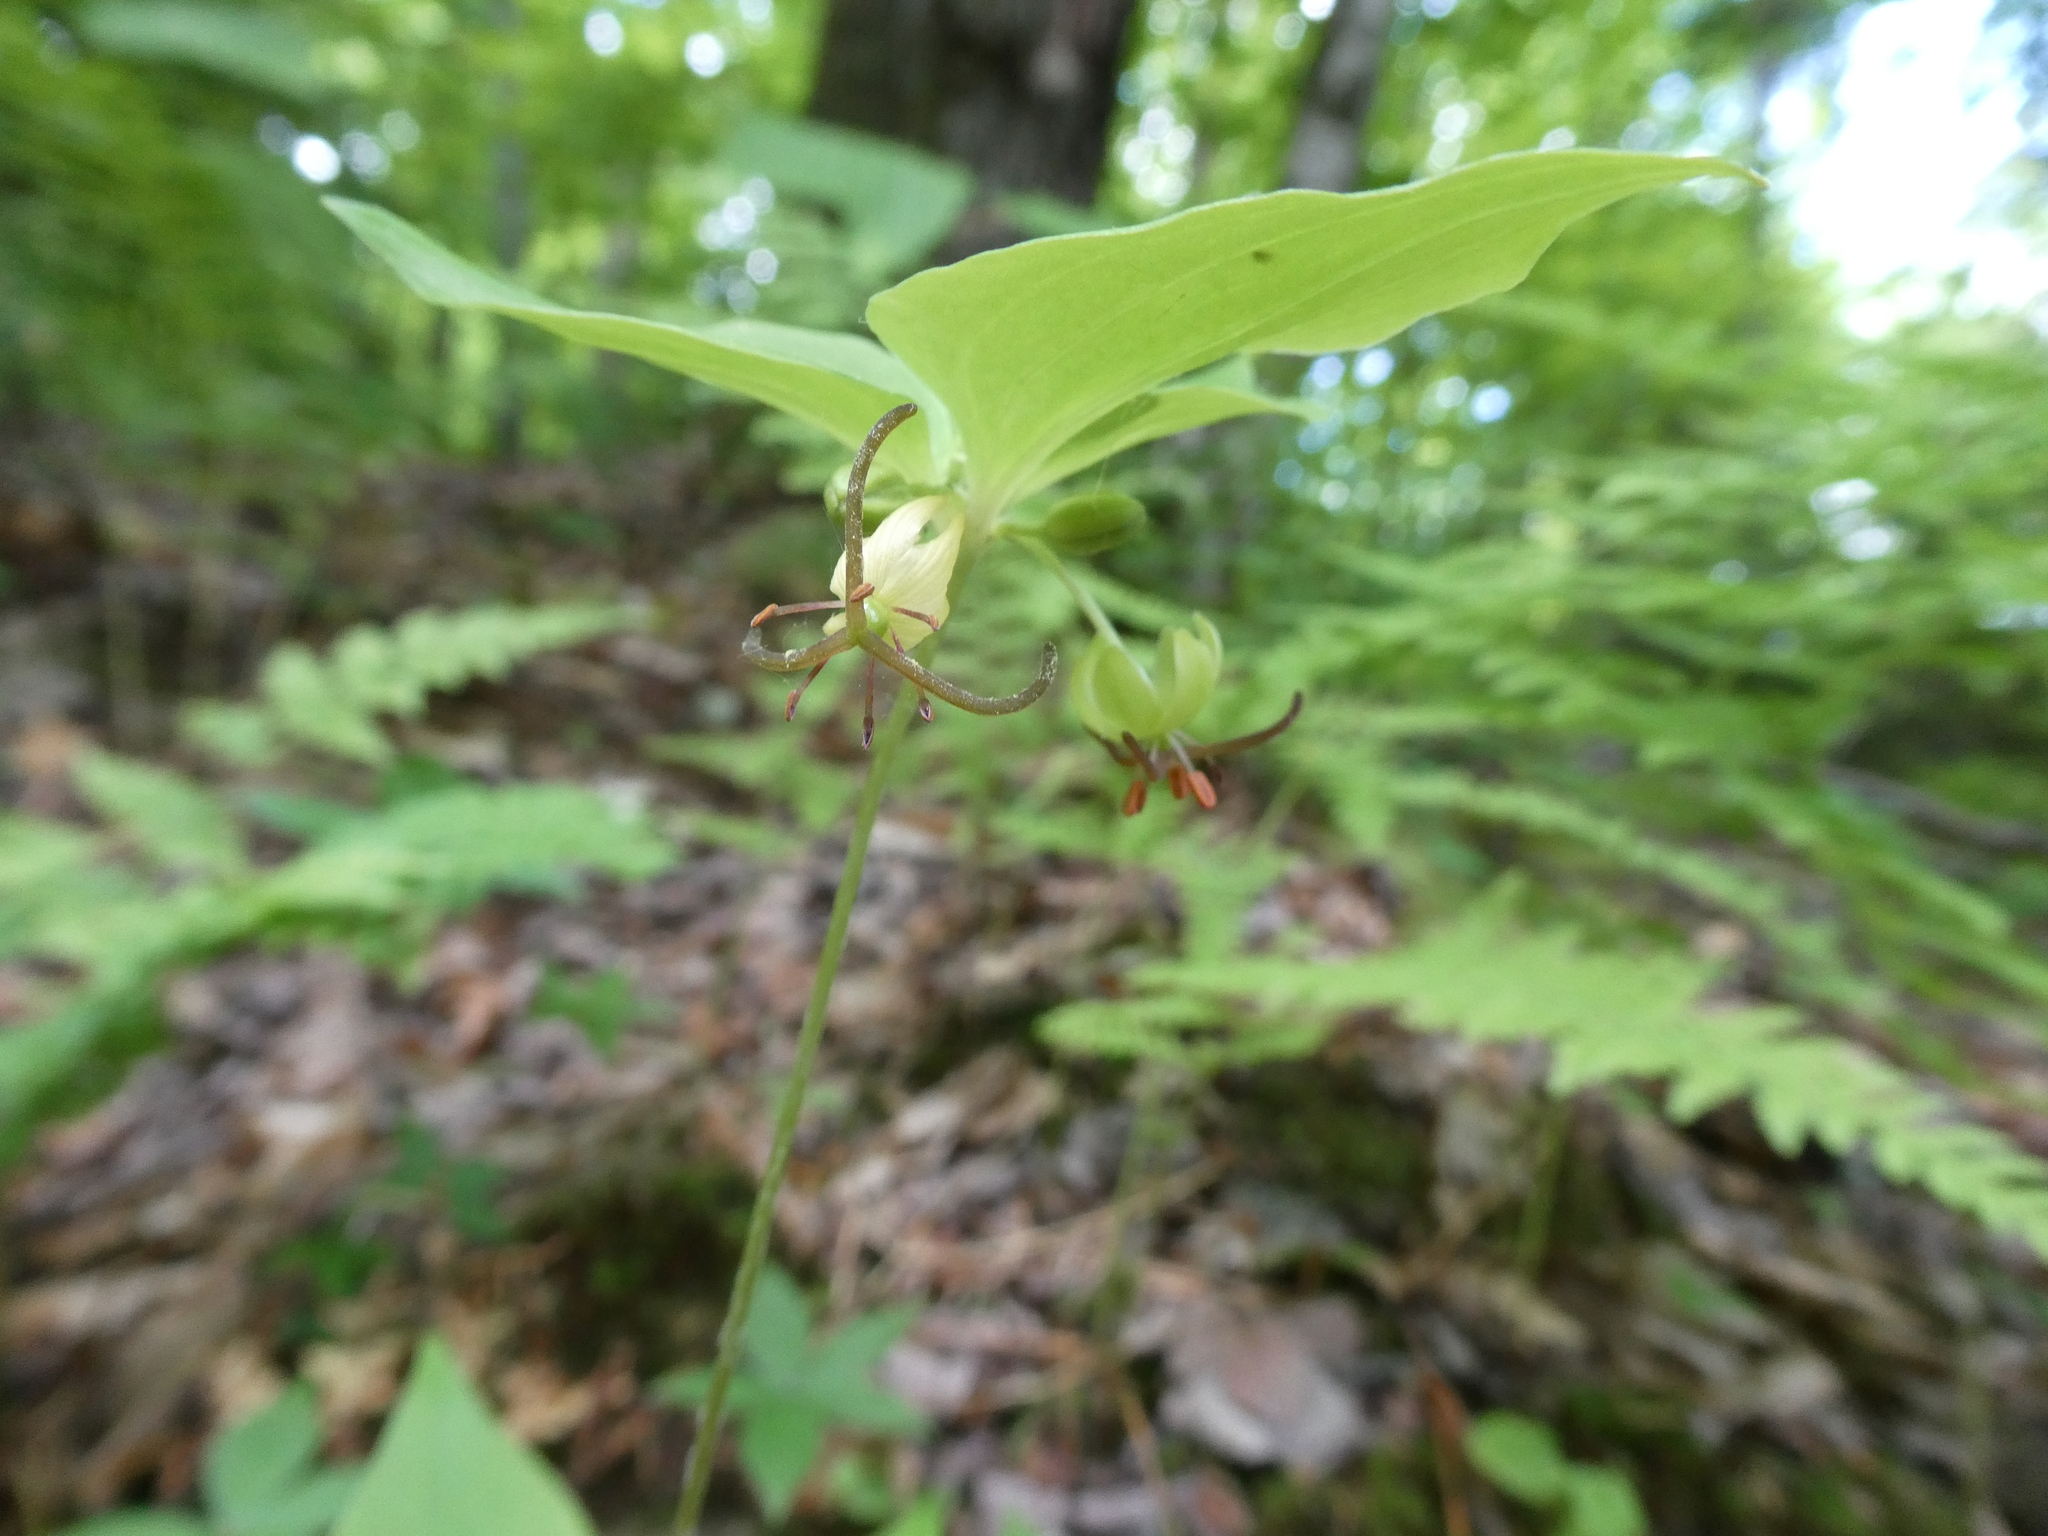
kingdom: Plantae
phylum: Tracheophyta
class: Liliopsida
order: Liliales
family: Liliaceae
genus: Medeola
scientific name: Medeola virginiana
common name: Indian cucumber-root
